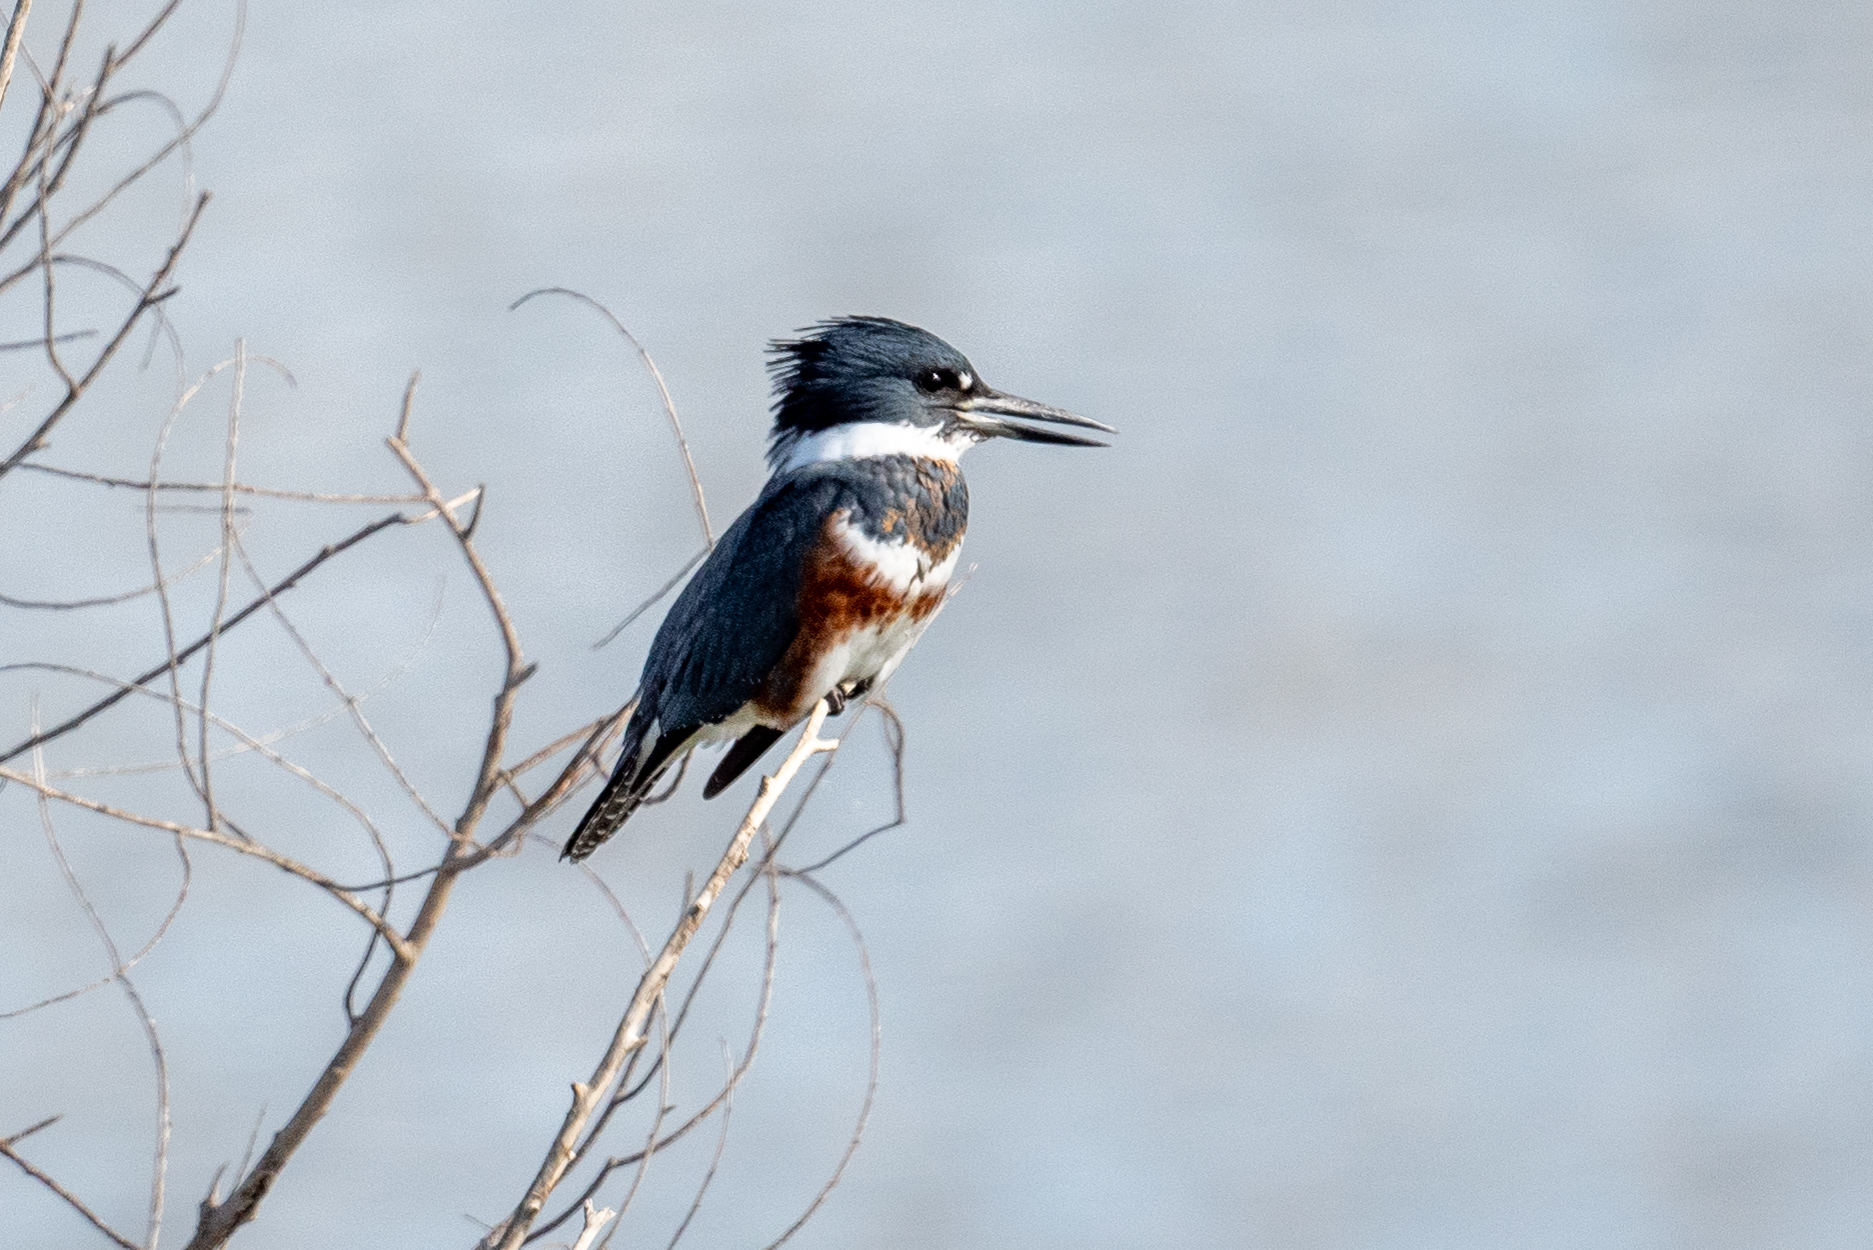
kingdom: Animalia
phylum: Chordata
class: Aves
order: Coraciiformes
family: Alcedinidae
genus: Megaceryle
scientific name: Megaceryle alcyon
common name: Belted kingfisher
